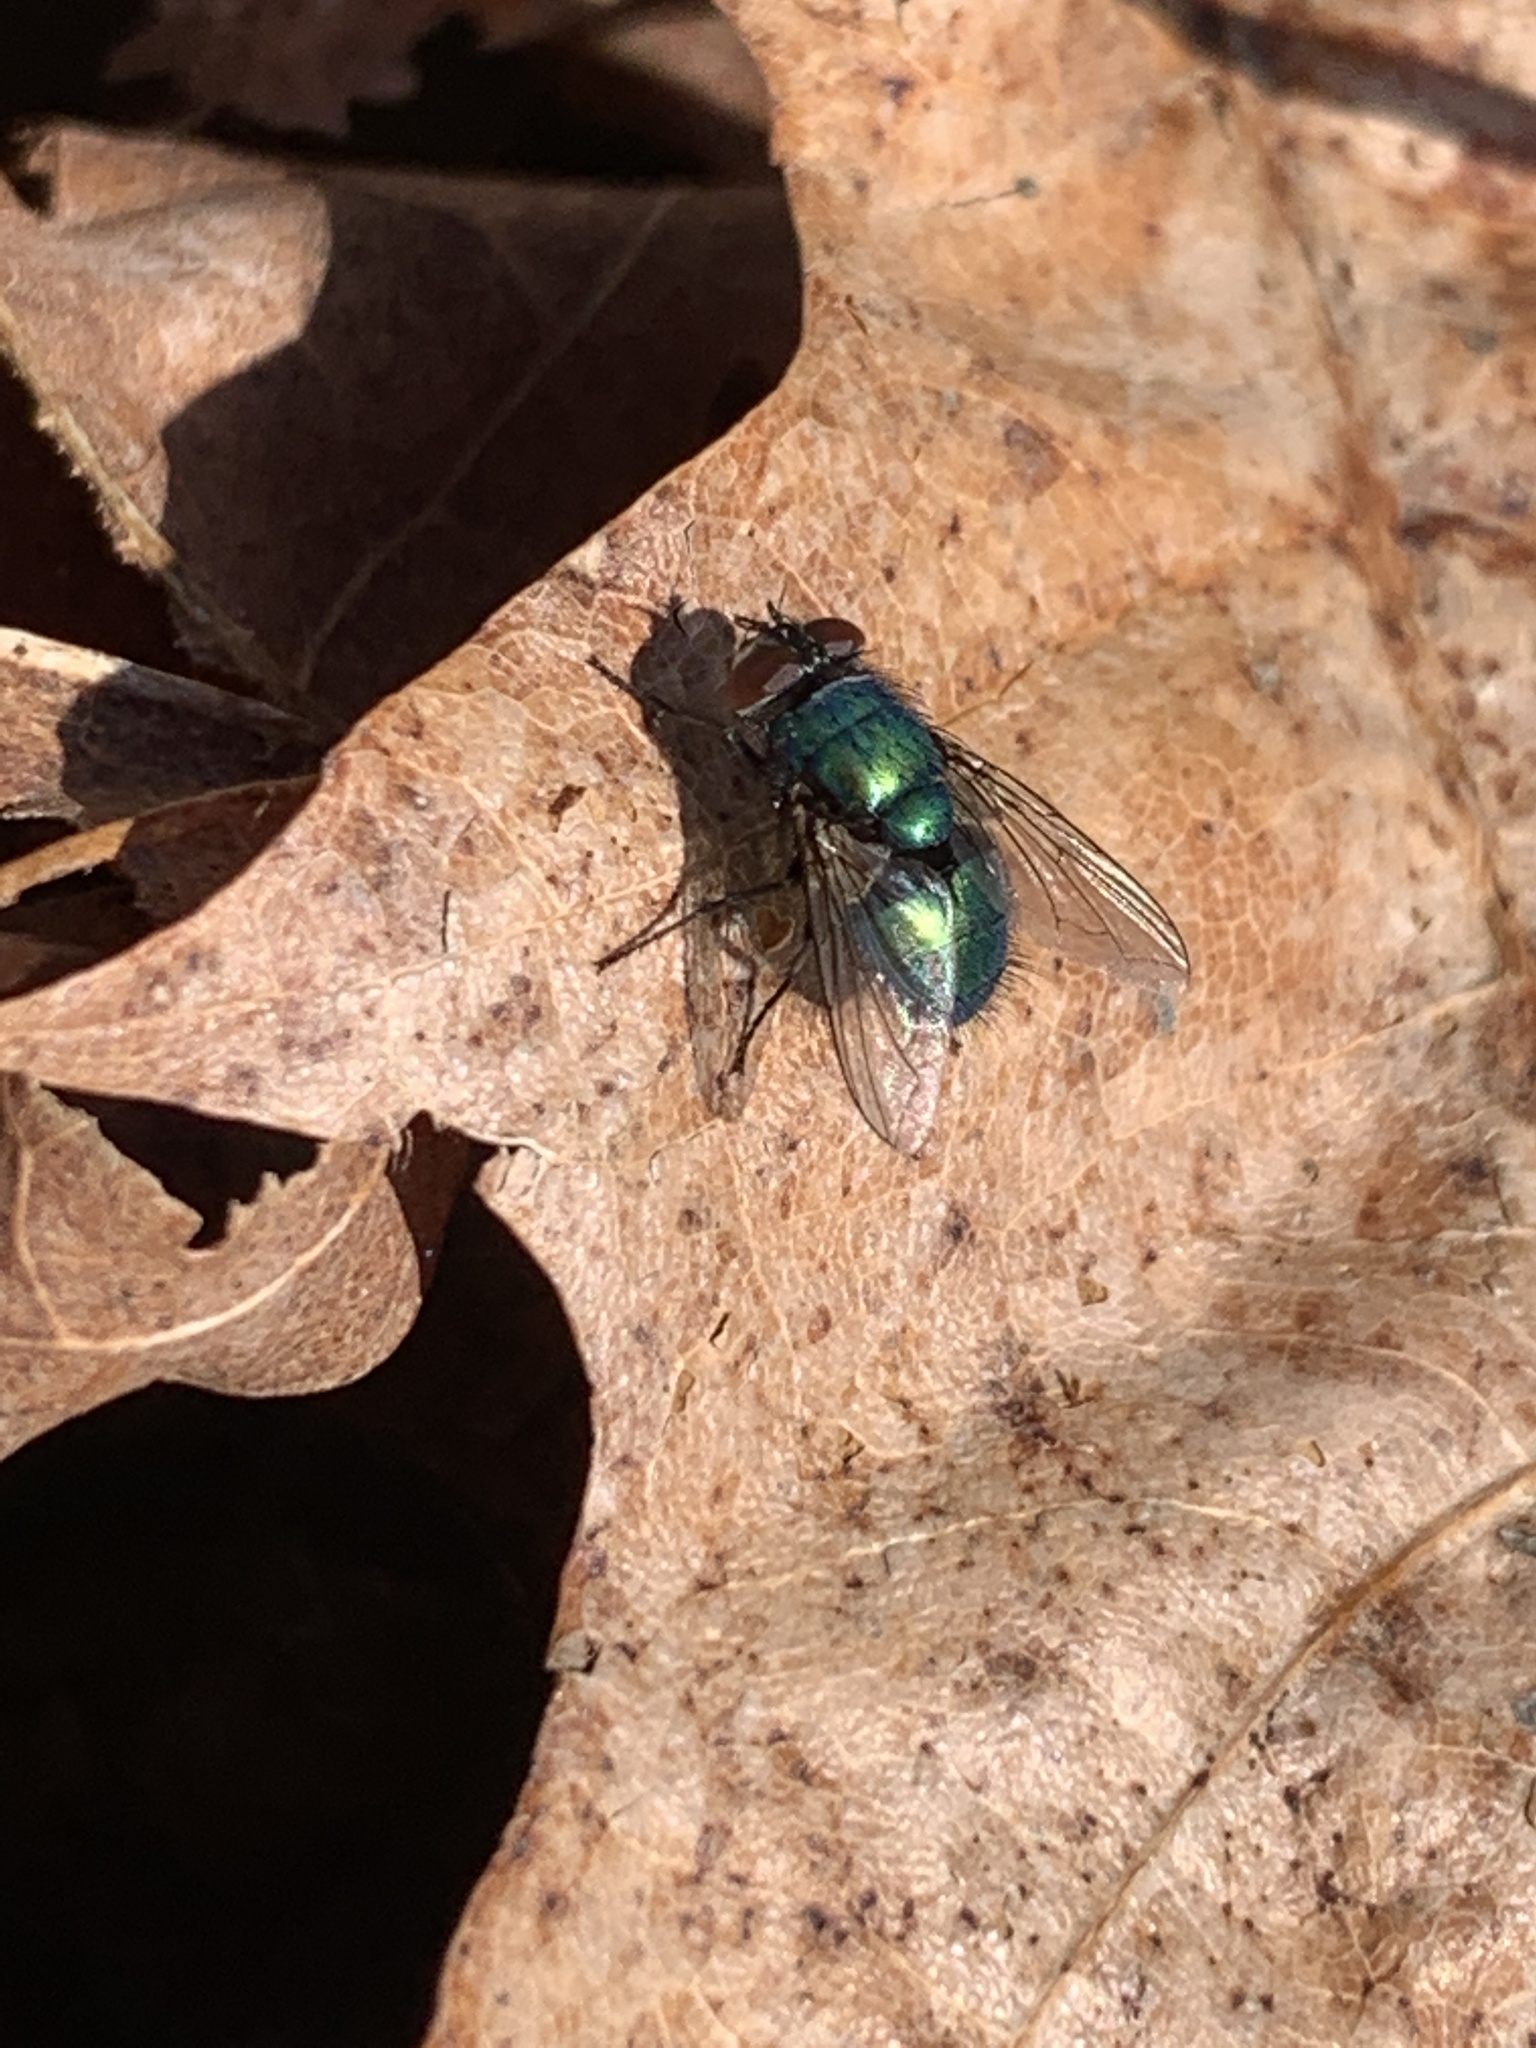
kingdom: Animalia
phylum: Arthropoda
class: Insecta
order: Diptera
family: Calliphoridae
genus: Lucilia
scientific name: Lucilia sericata
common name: Blow fly
